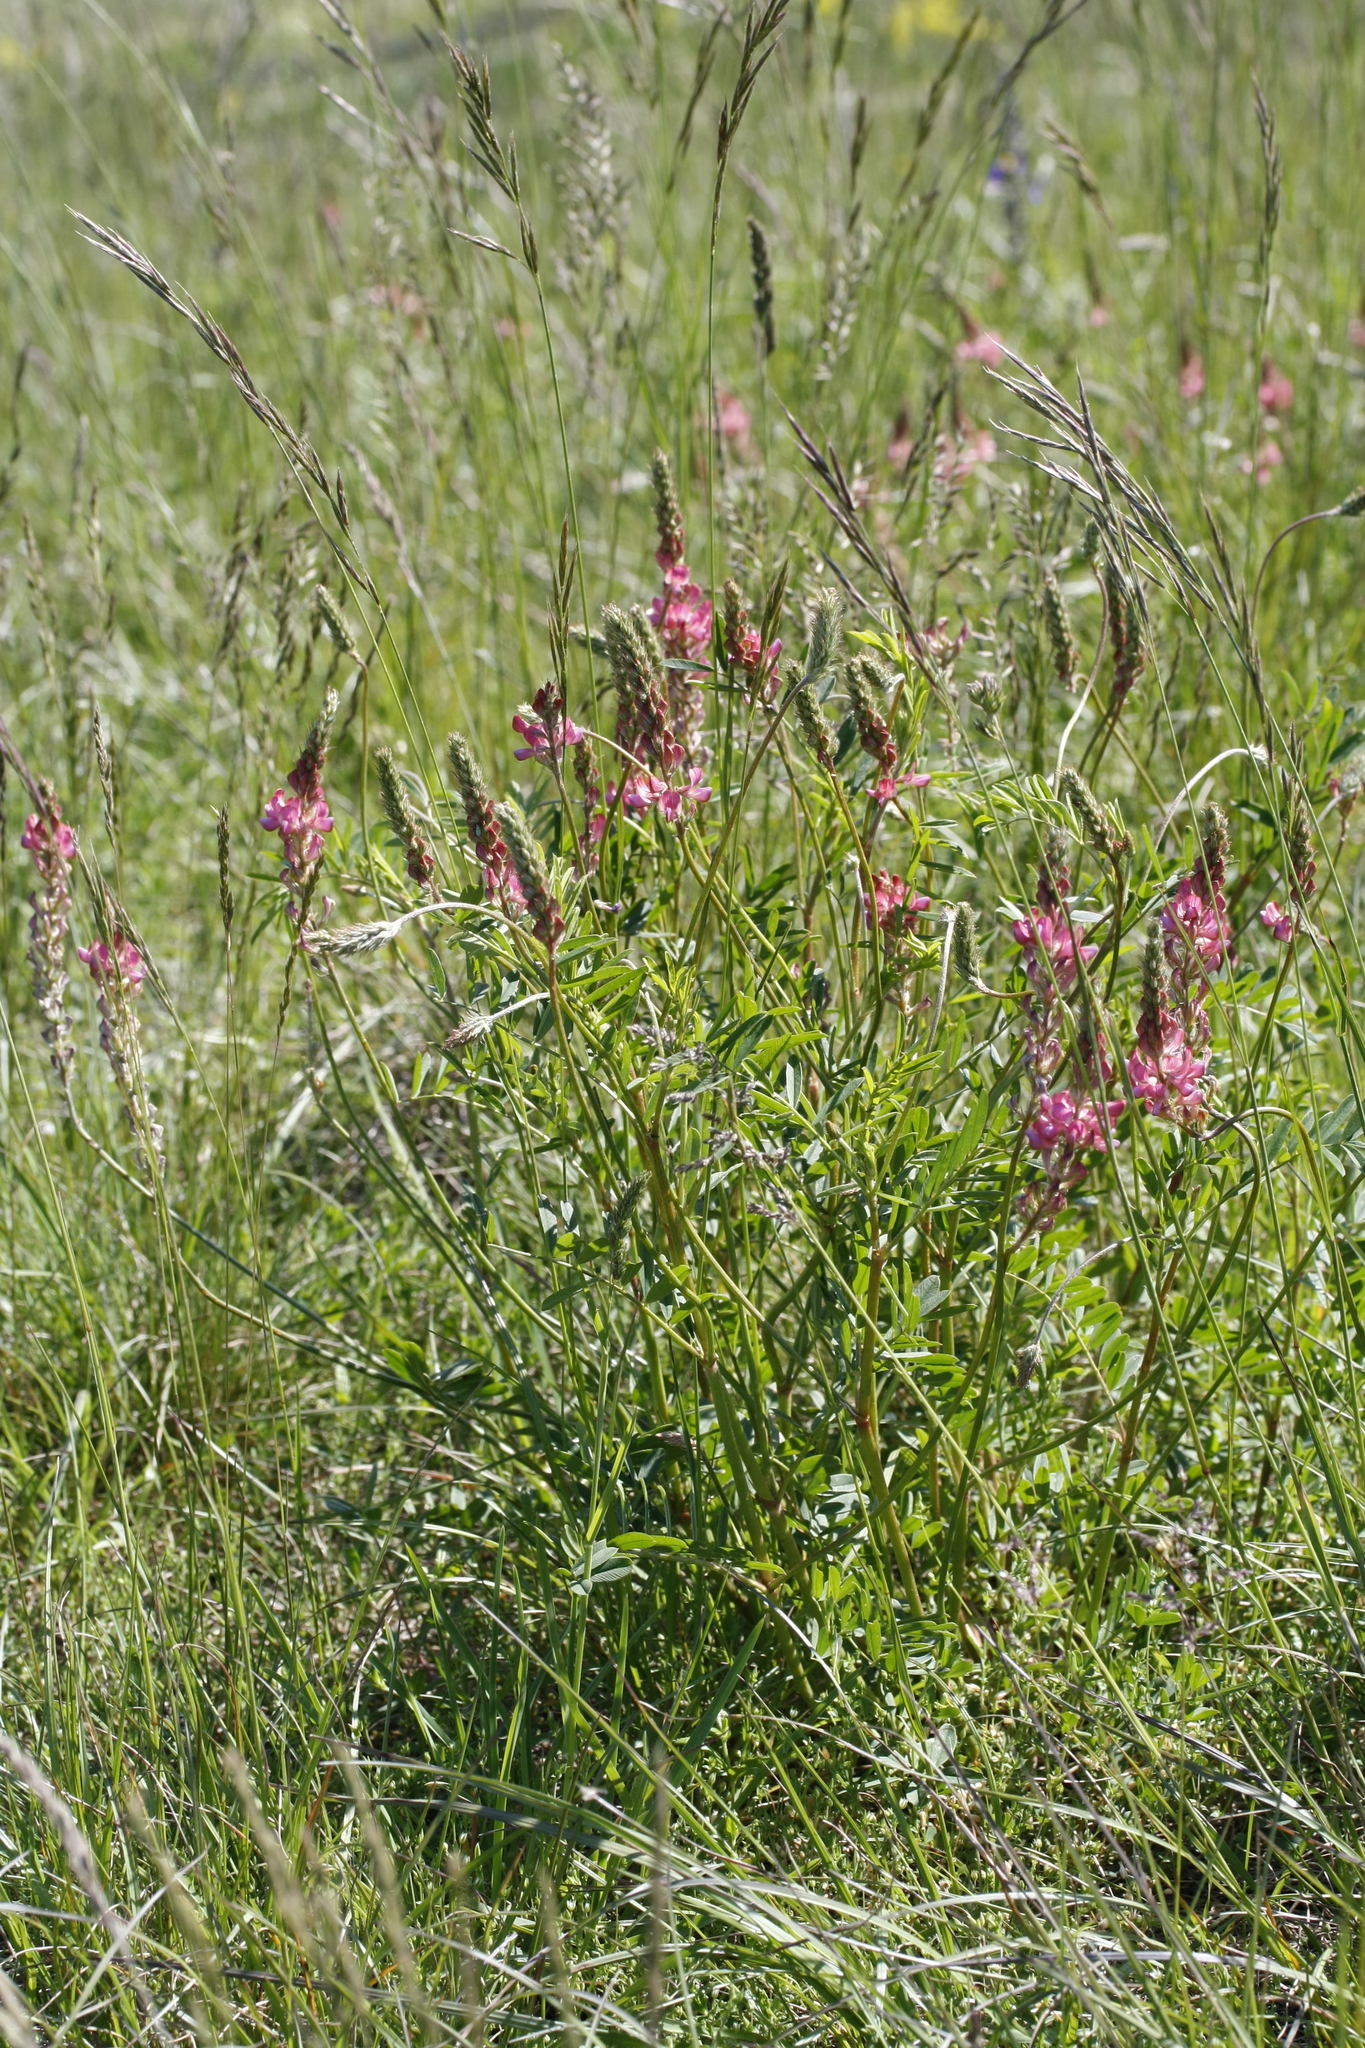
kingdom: Plantae
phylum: Tracheophyta
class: Magnoliopsida
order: Fabales
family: Fabaceae
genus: Onobrychis
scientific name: Onobrychis viciifolia
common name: Sainfoin
